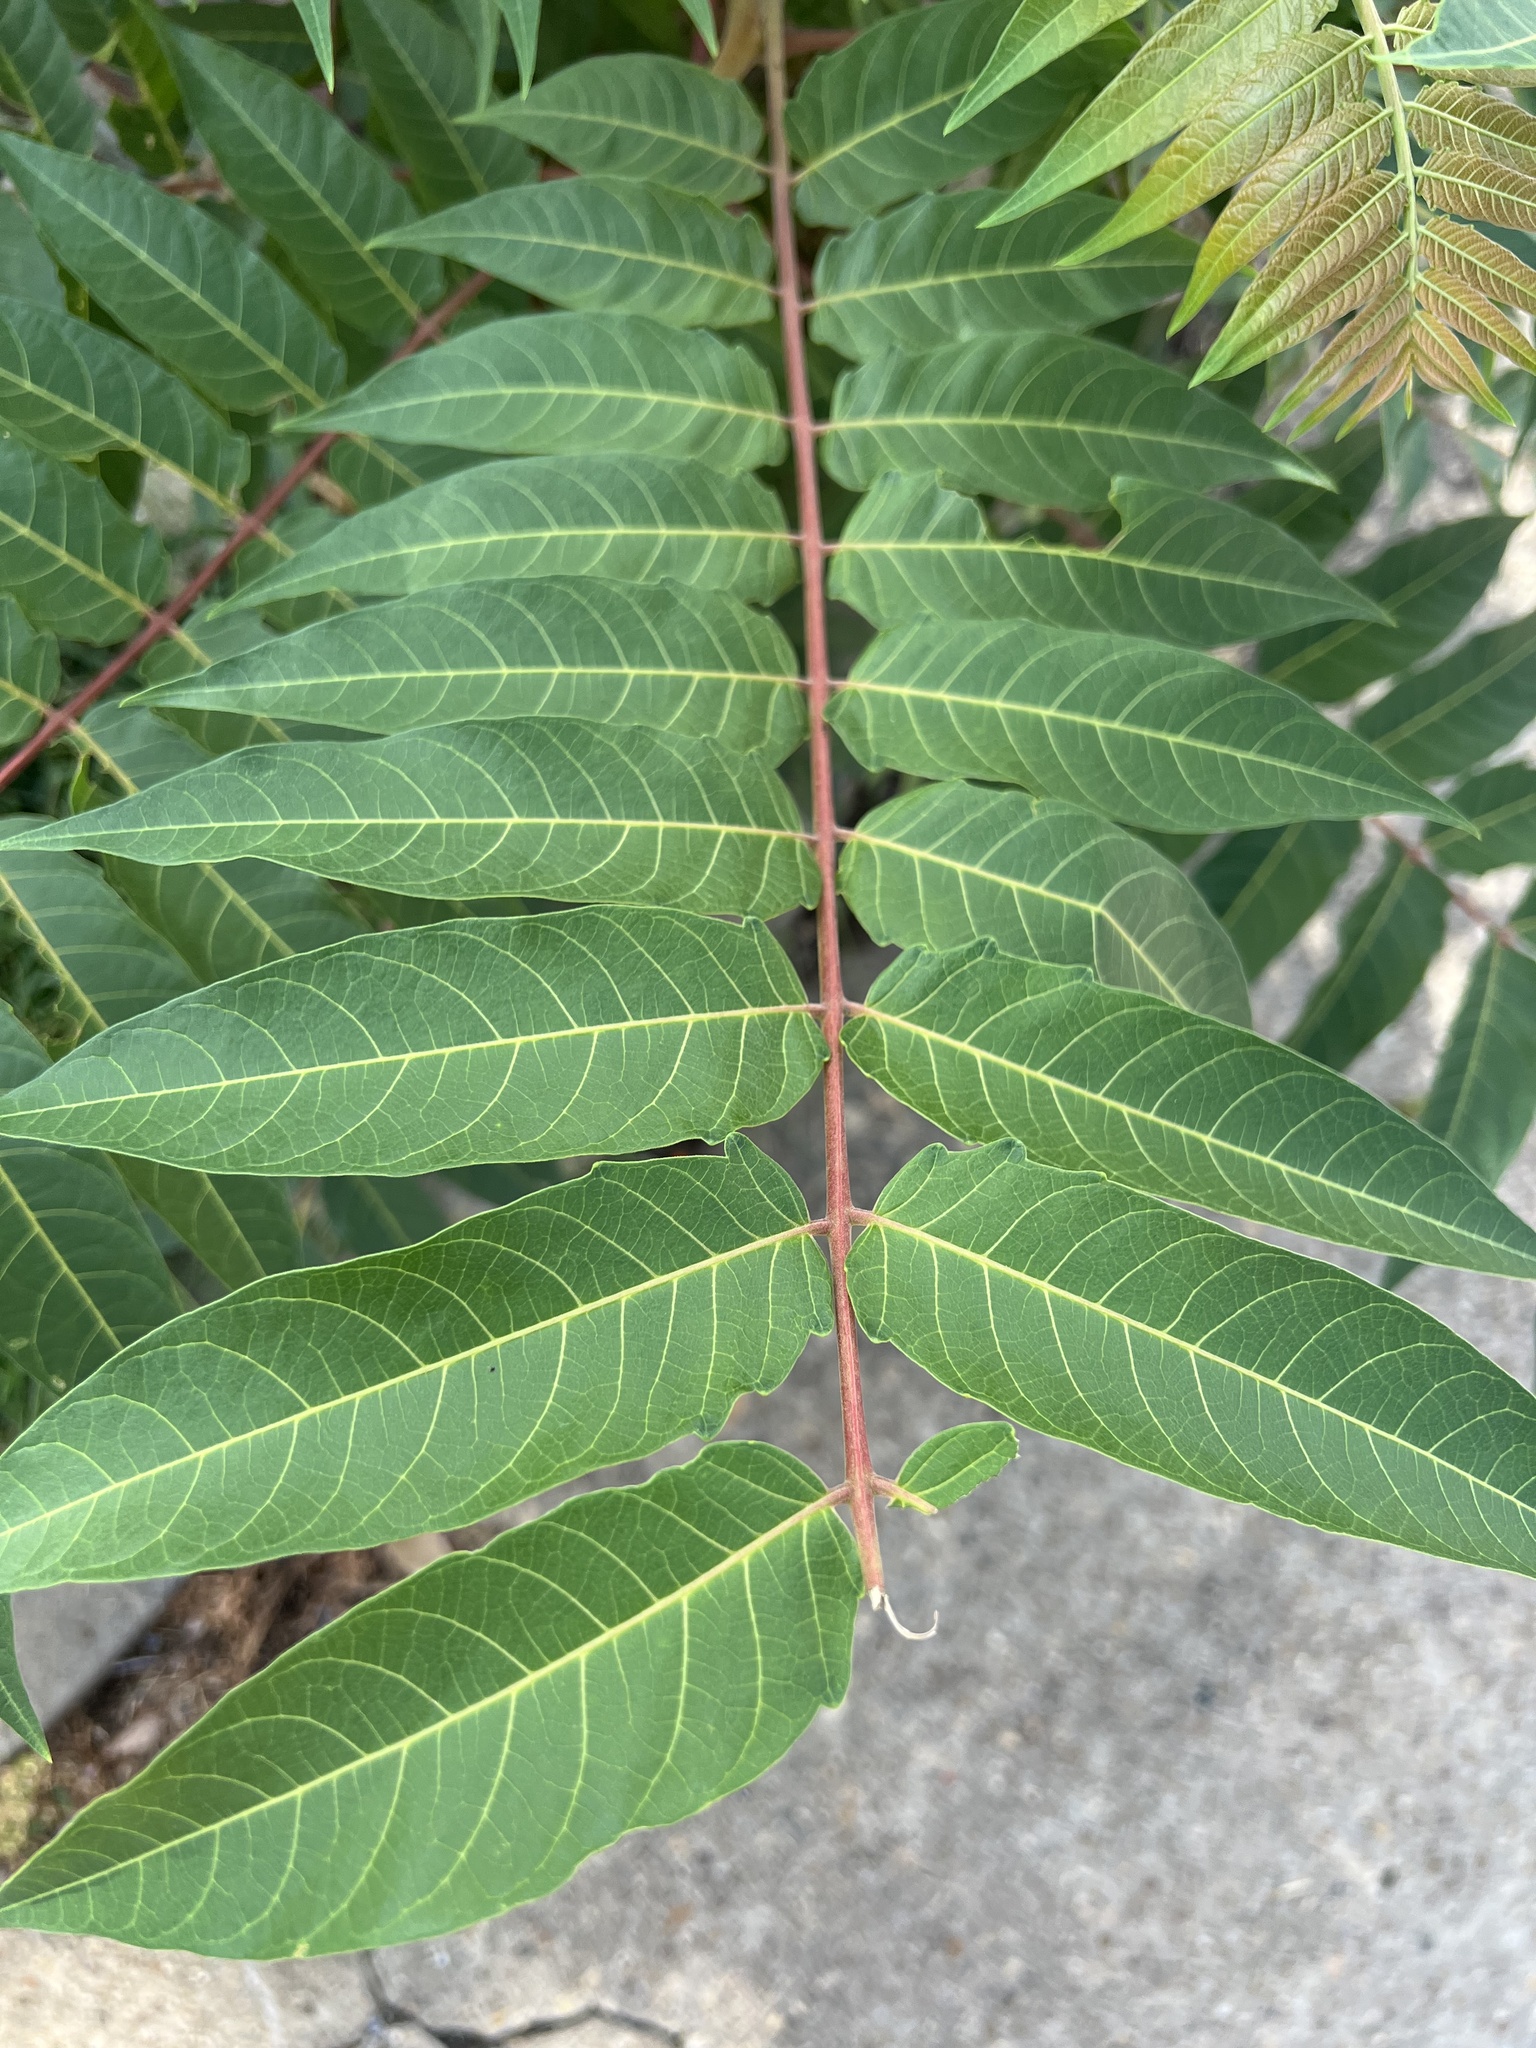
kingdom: Plantae
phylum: Tracheophyta
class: Magnoliopsida
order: Sapindales
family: Simaroubaceae
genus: Ailanthus
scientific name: Ailanthus altissima
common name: Tree-of-heaven
